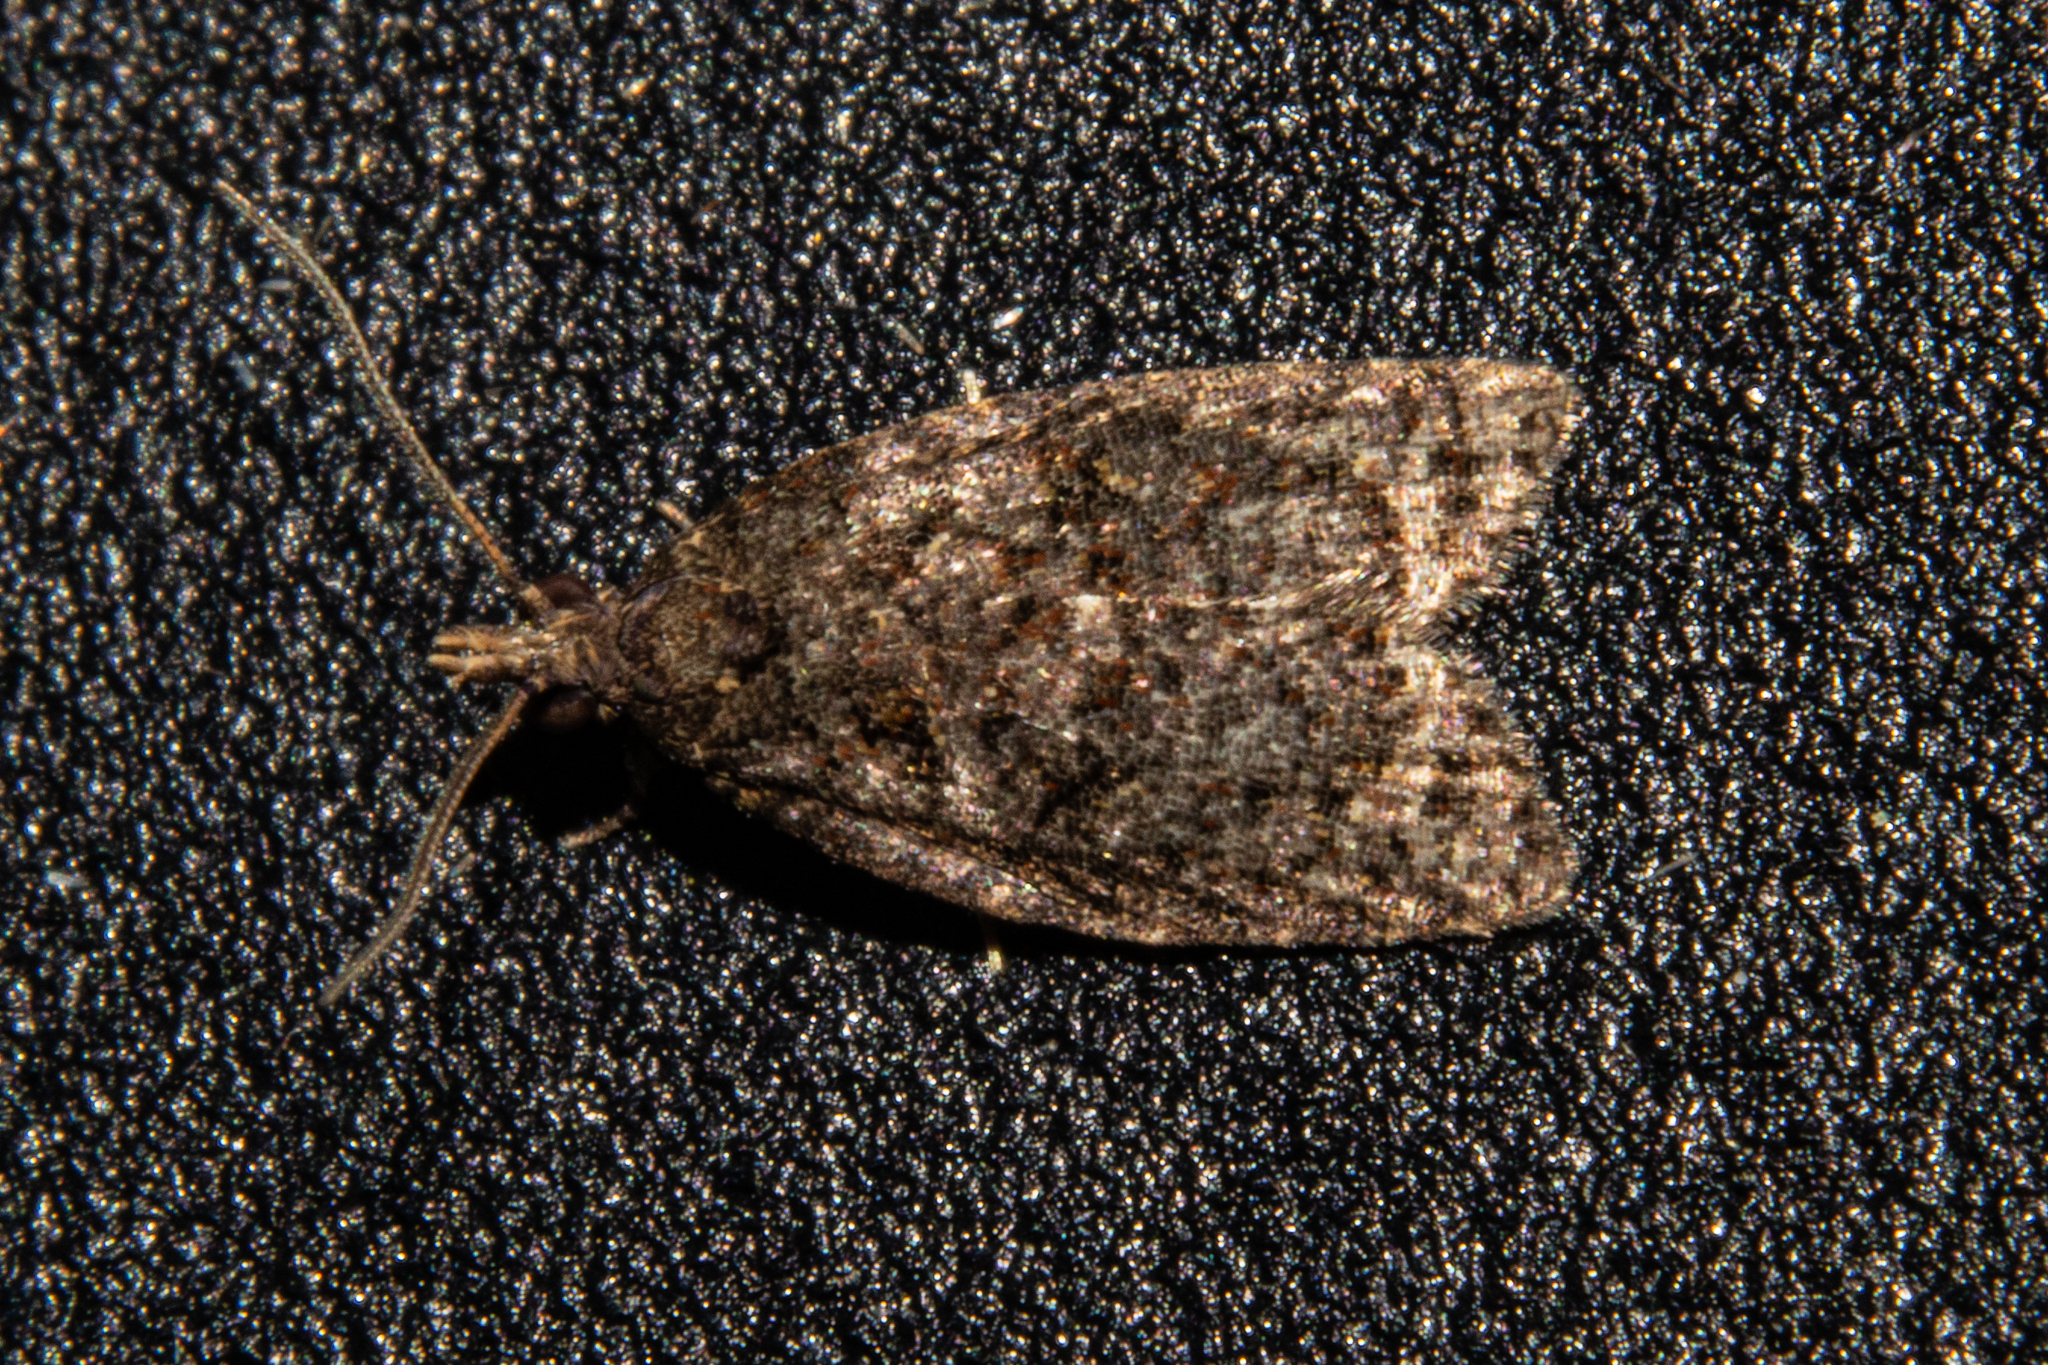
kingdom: Animalia
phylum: Arthropoda
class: Insecta
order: Lepidoptera
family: Tortricidae
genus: Capua
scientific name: Capua intractana
